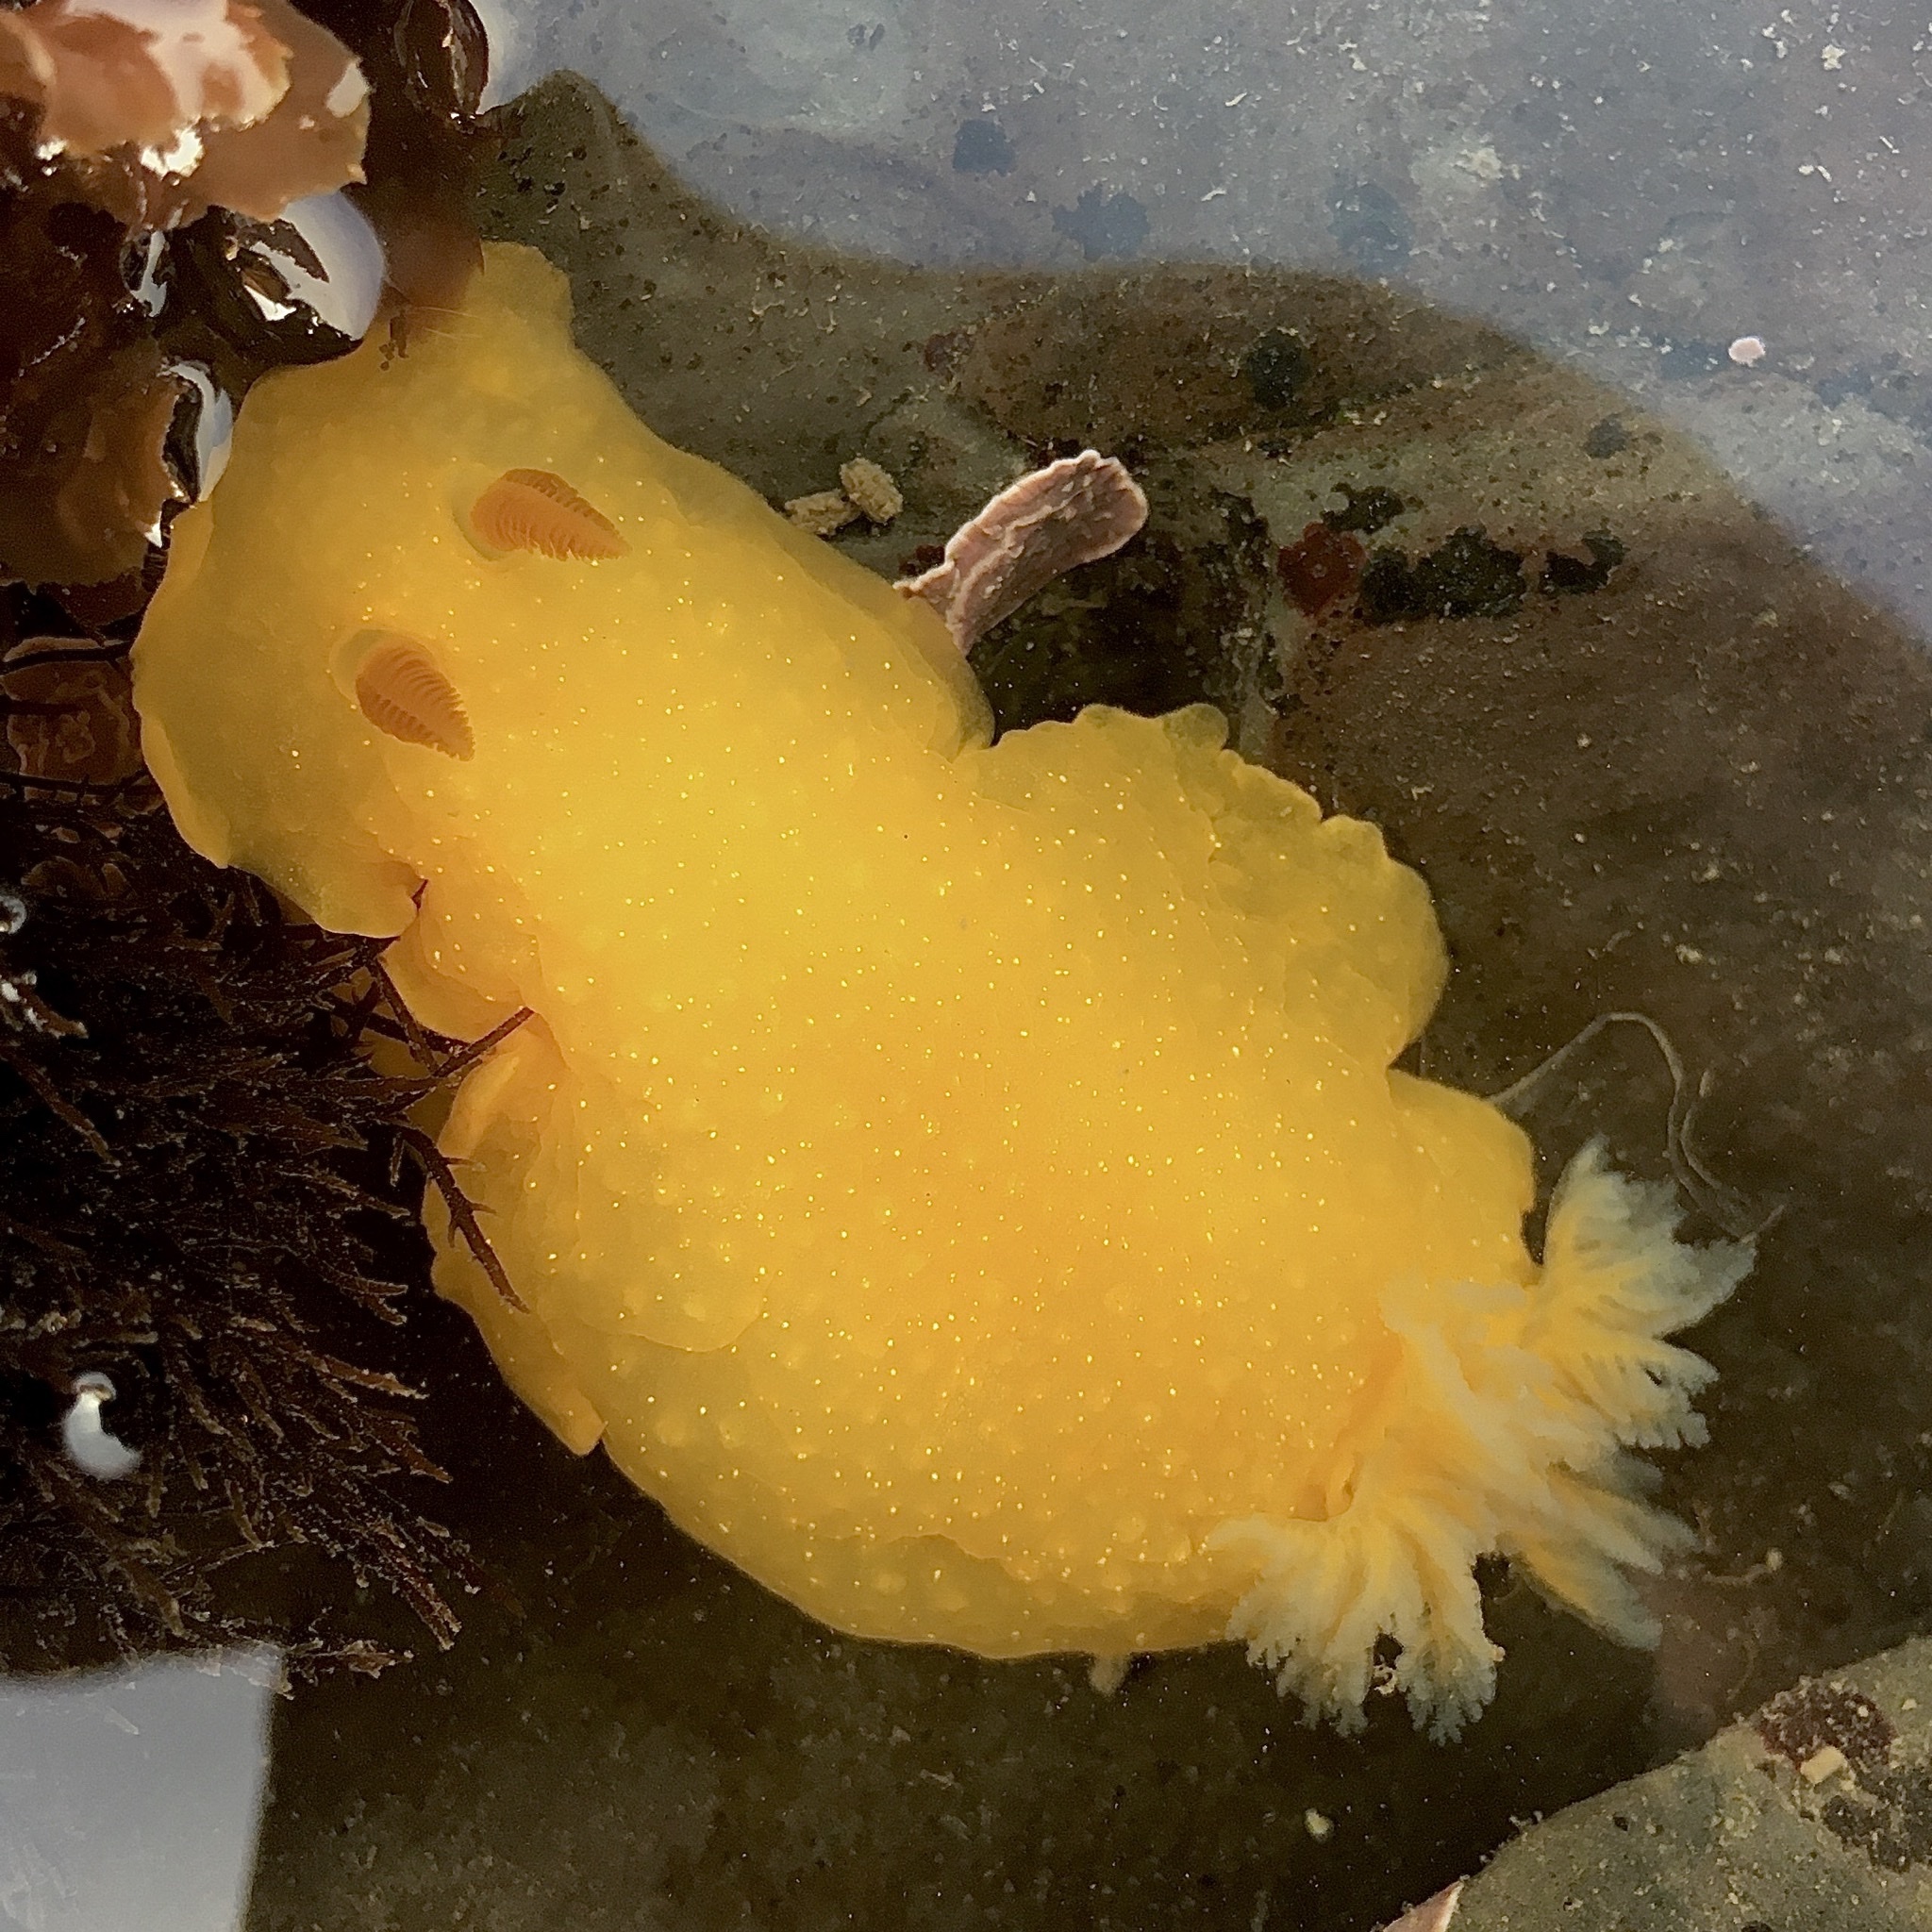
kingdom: Animalia
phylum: Mollusca
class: Gastropoda
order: Nudibranchia
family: Dendrodorididae
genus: Doriopsilla
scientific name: Doriopsilla fulva
